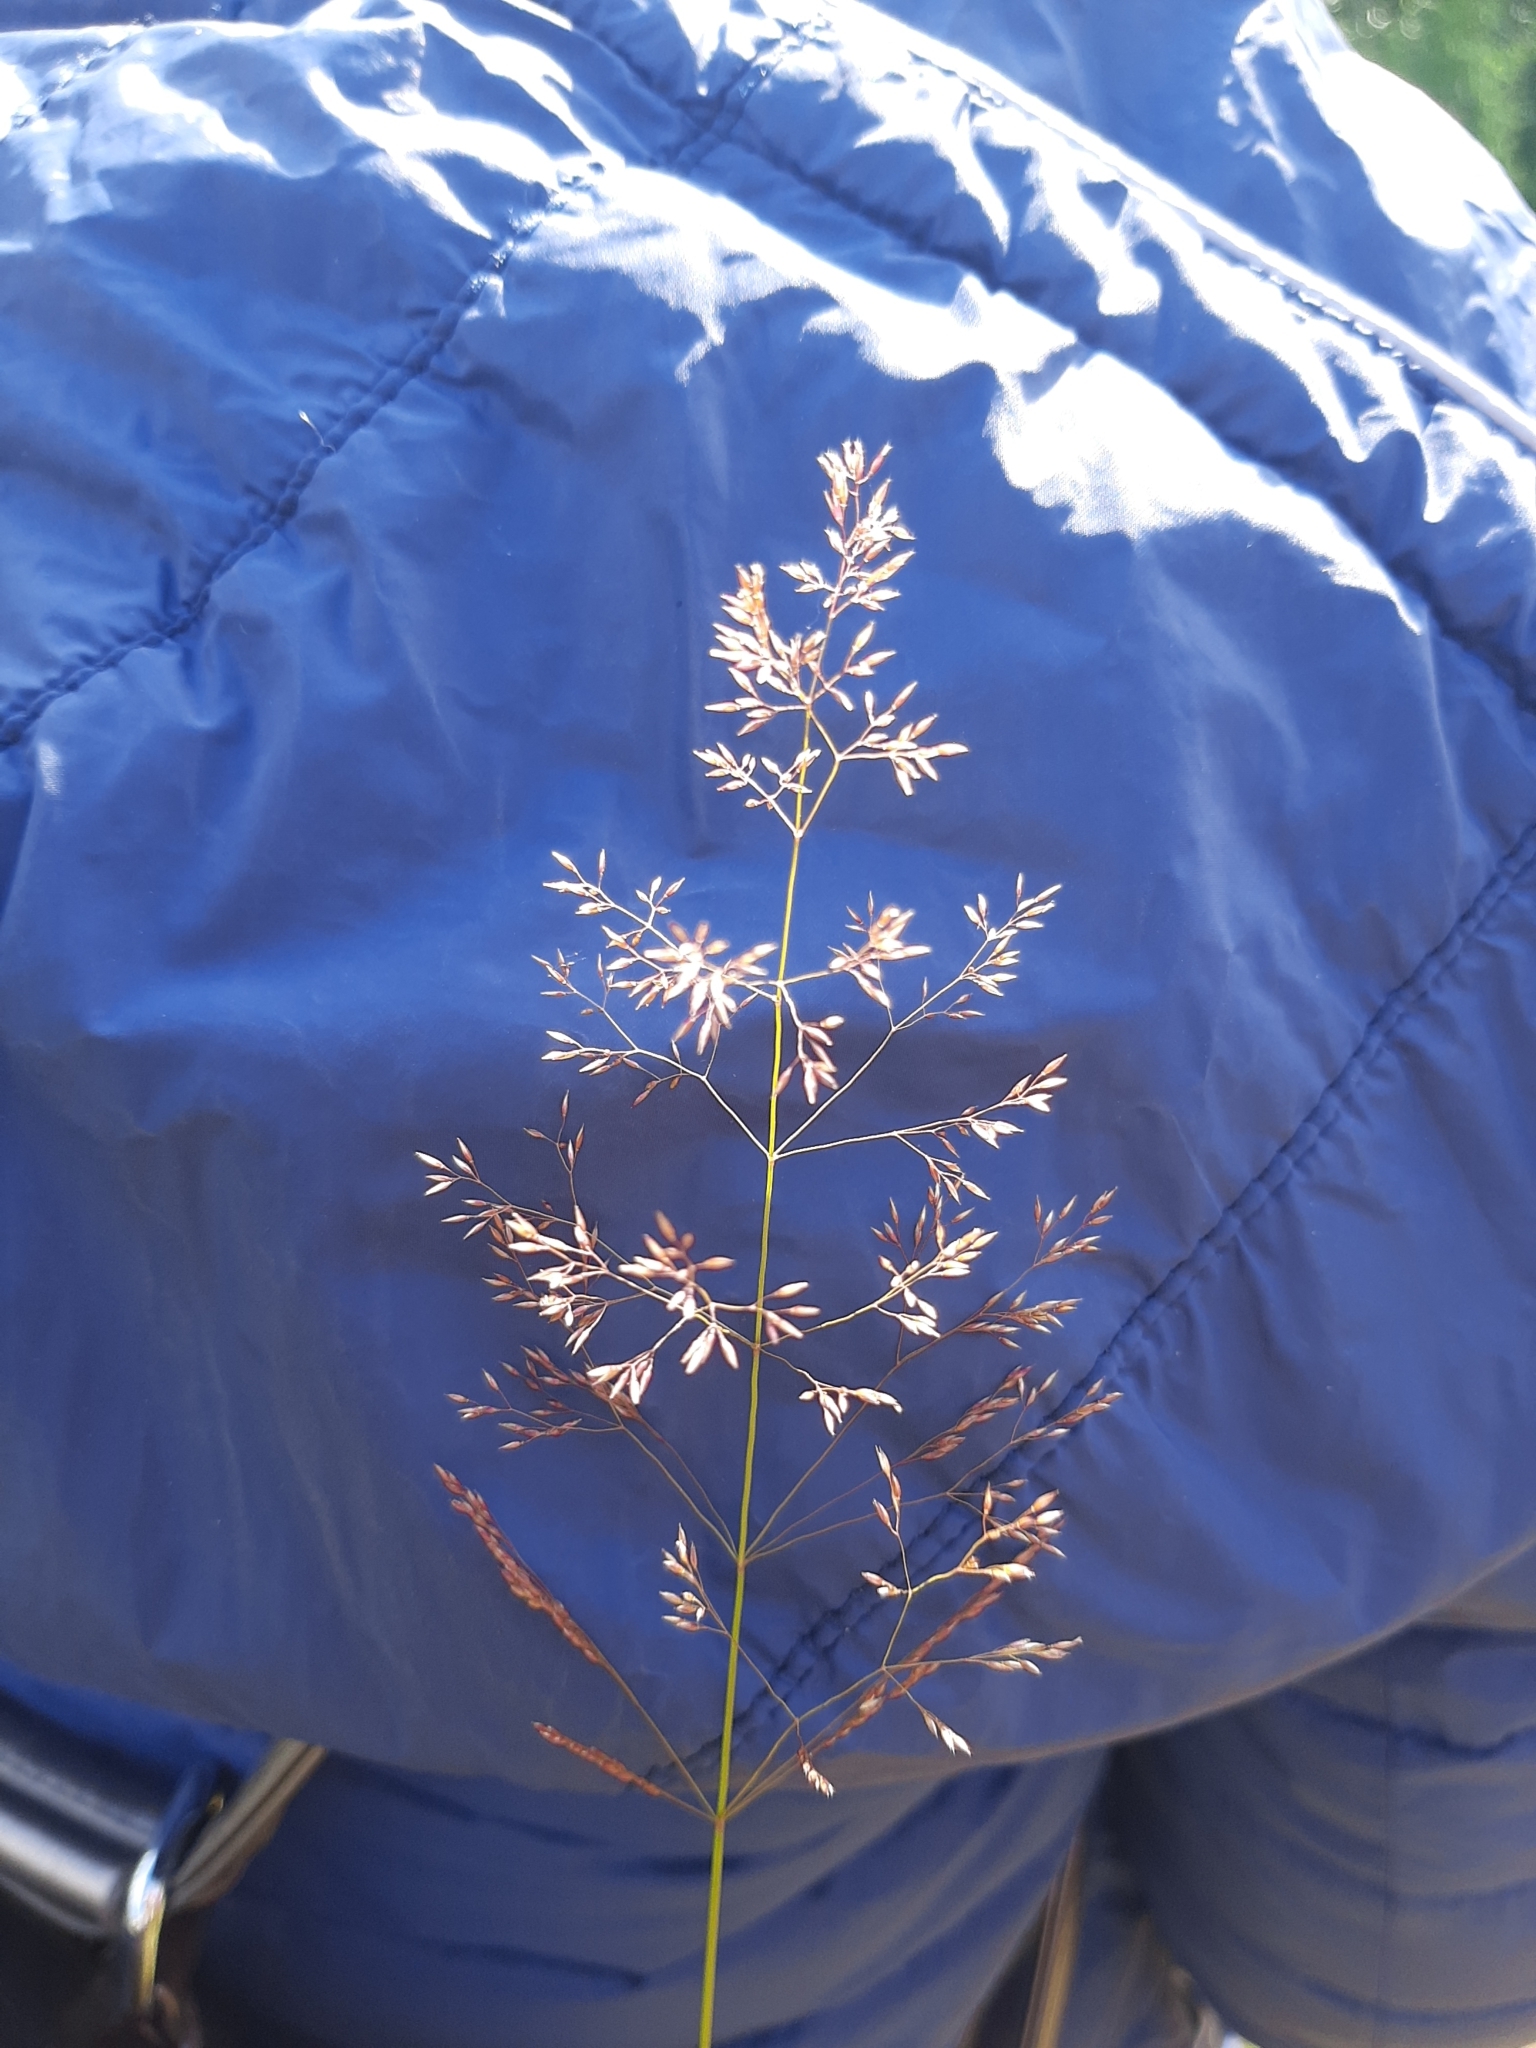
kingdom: Plantae
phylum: Tracheophyta
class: Liliopsida
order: Poales
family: Poaceae
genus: Agrostis
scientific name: Agrostis gigantea
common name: Black bent
